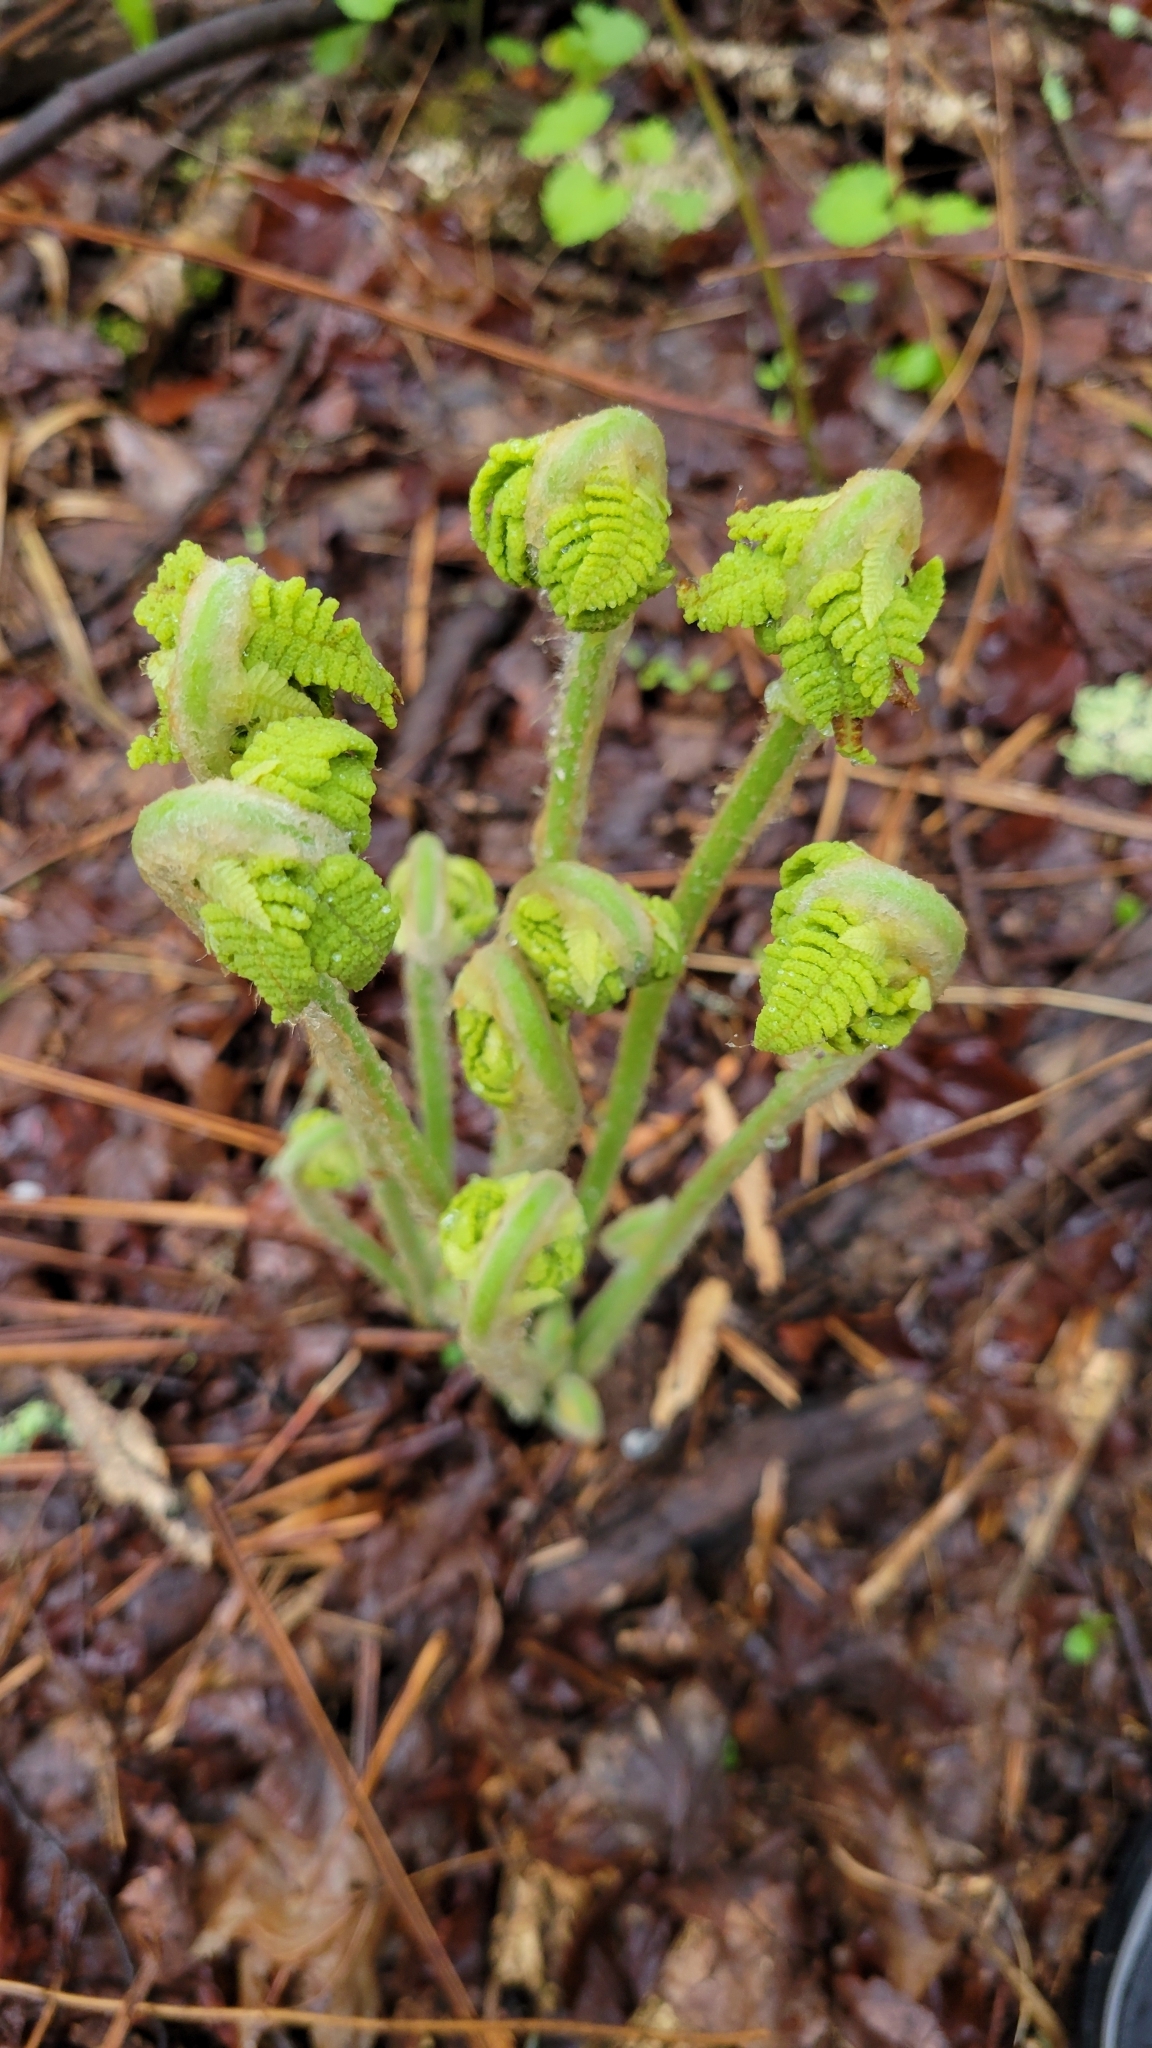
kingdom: Plantae
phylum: Tracheophyta
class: Polypodiopsida
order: Osmundales
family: Osmundaceae
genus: Claytosmunda
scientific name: Claytosmunda claytoniana
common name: Clayton's fern
